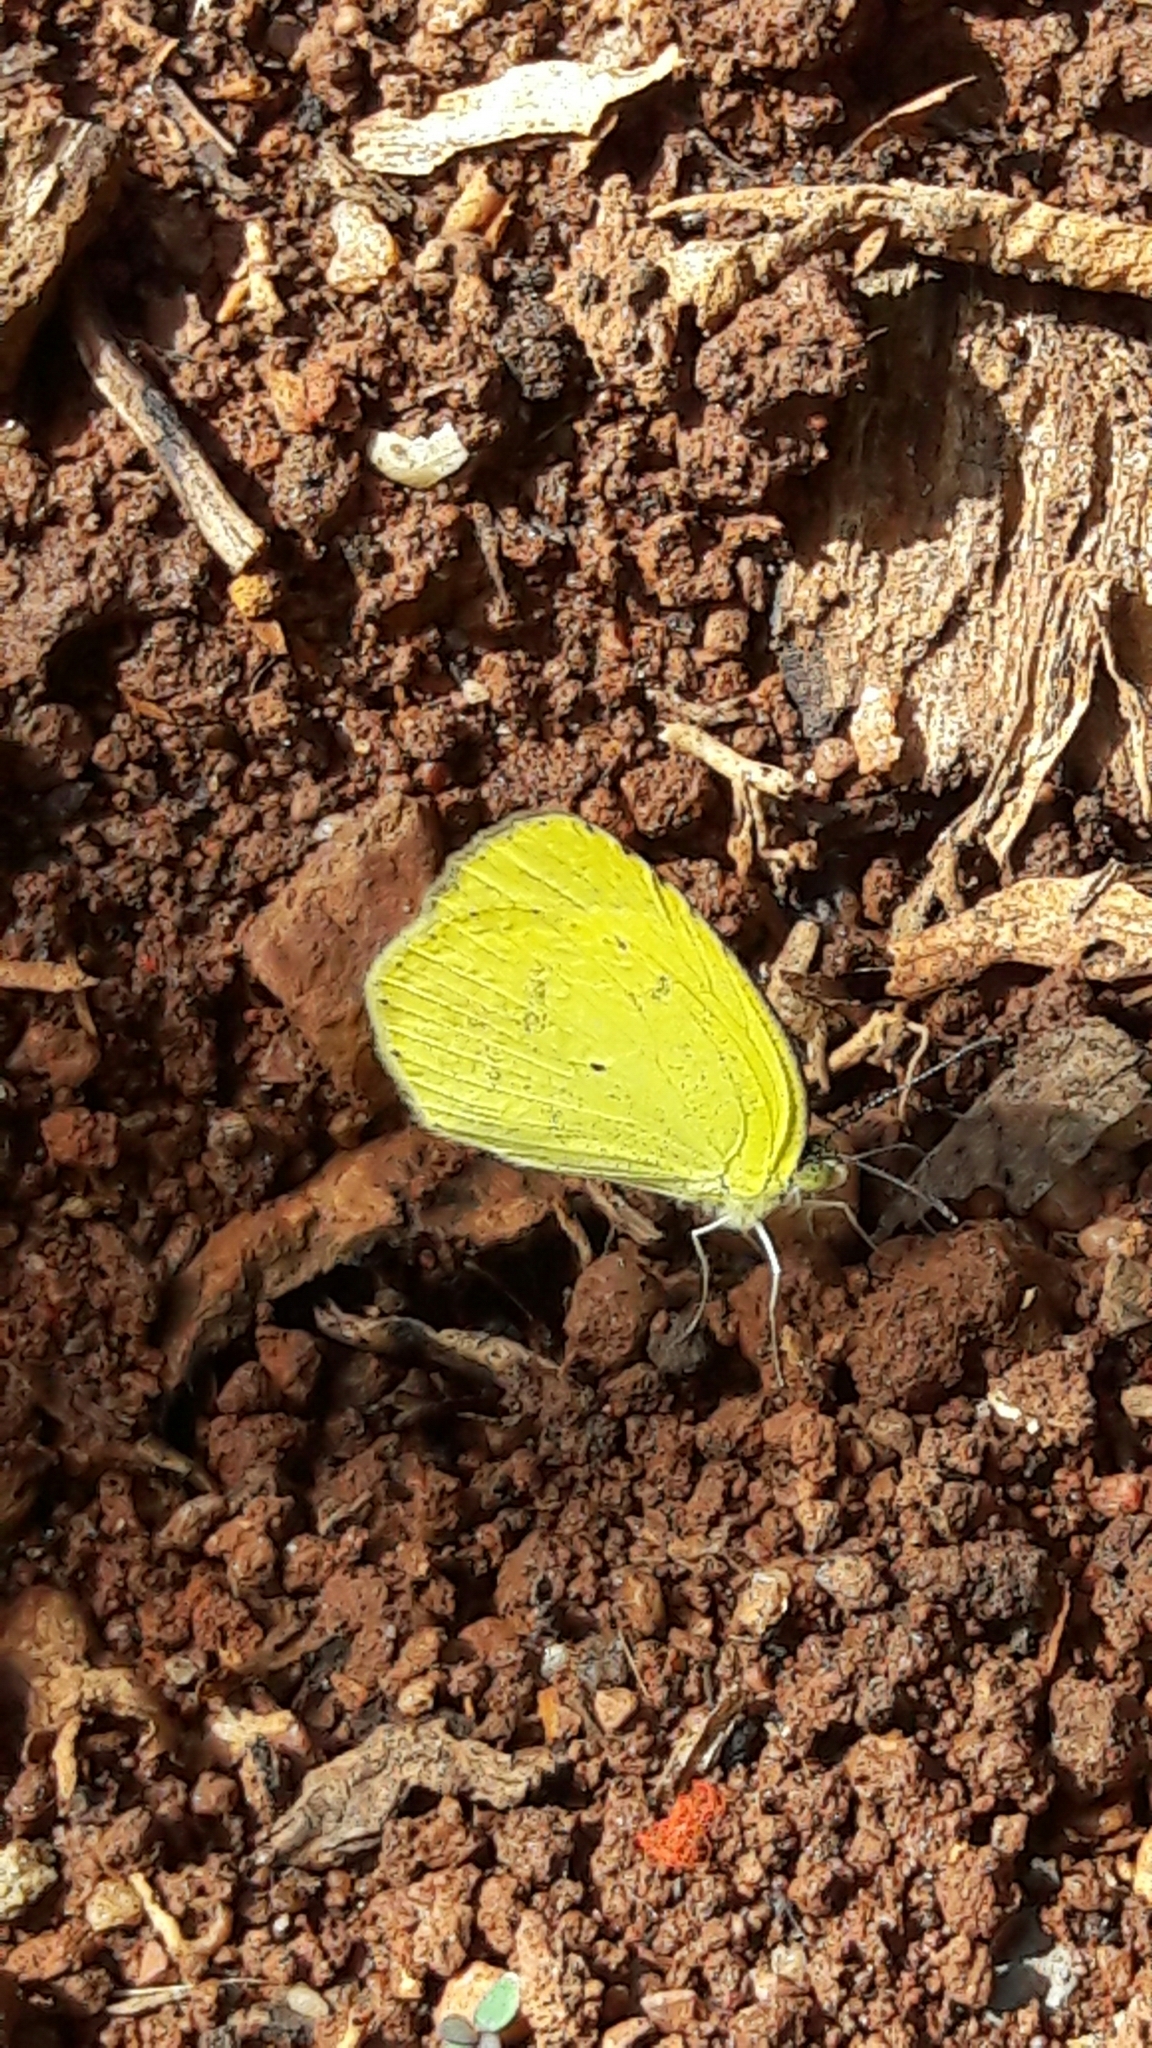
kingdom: Animalia
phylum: Arthropoda
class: Insecta
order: Lepidoptera
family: Pieridae
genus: Pyrisitia
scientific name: Pyrisitia nise
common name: Mimosa yellow
